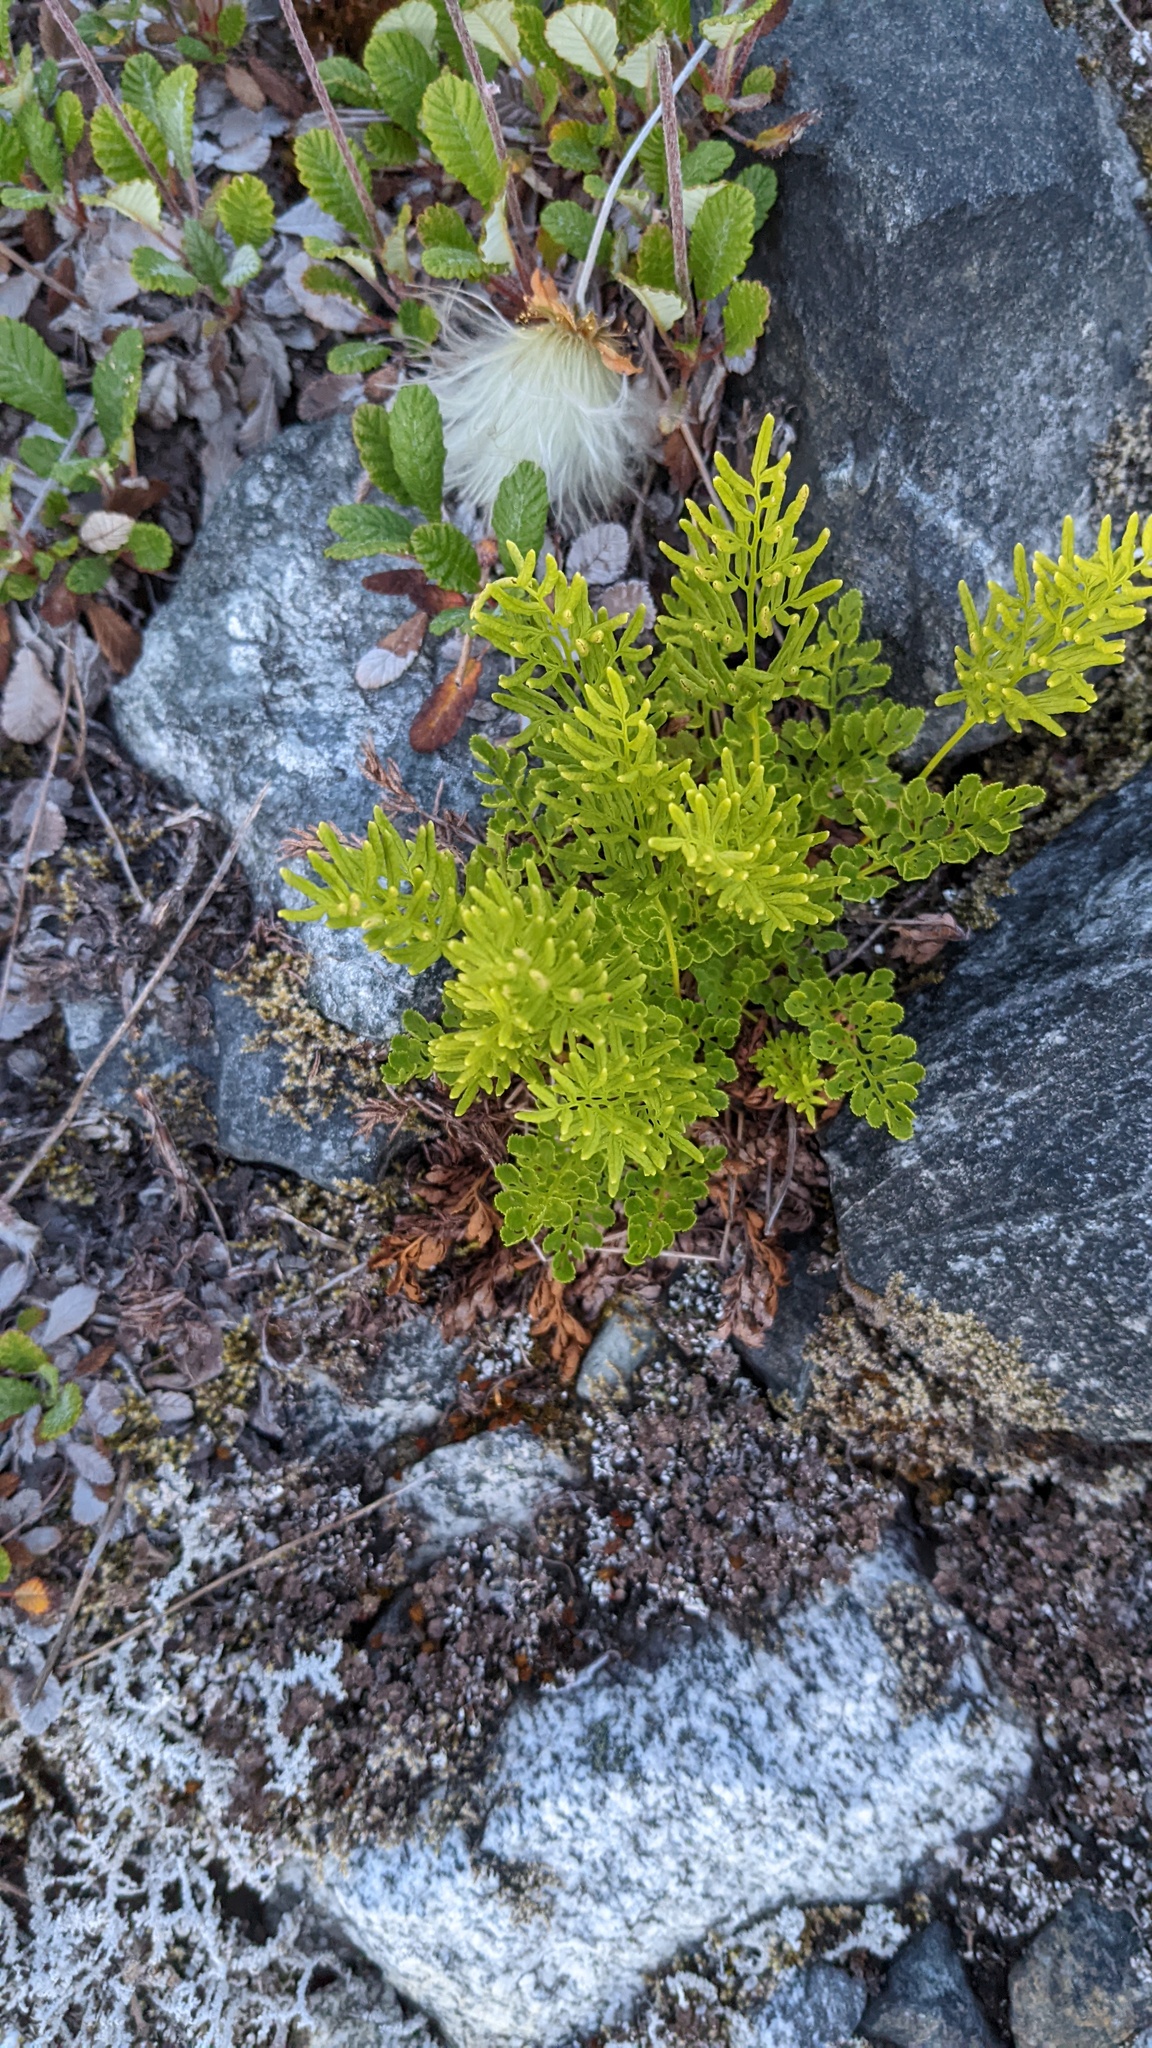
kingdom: Plantae
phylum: Tracheophyta
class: Polypodiopsida
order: Polypodiales
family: Pteridaceae
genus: Cryptogramma
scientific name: Cryptogramma acrostichoides
